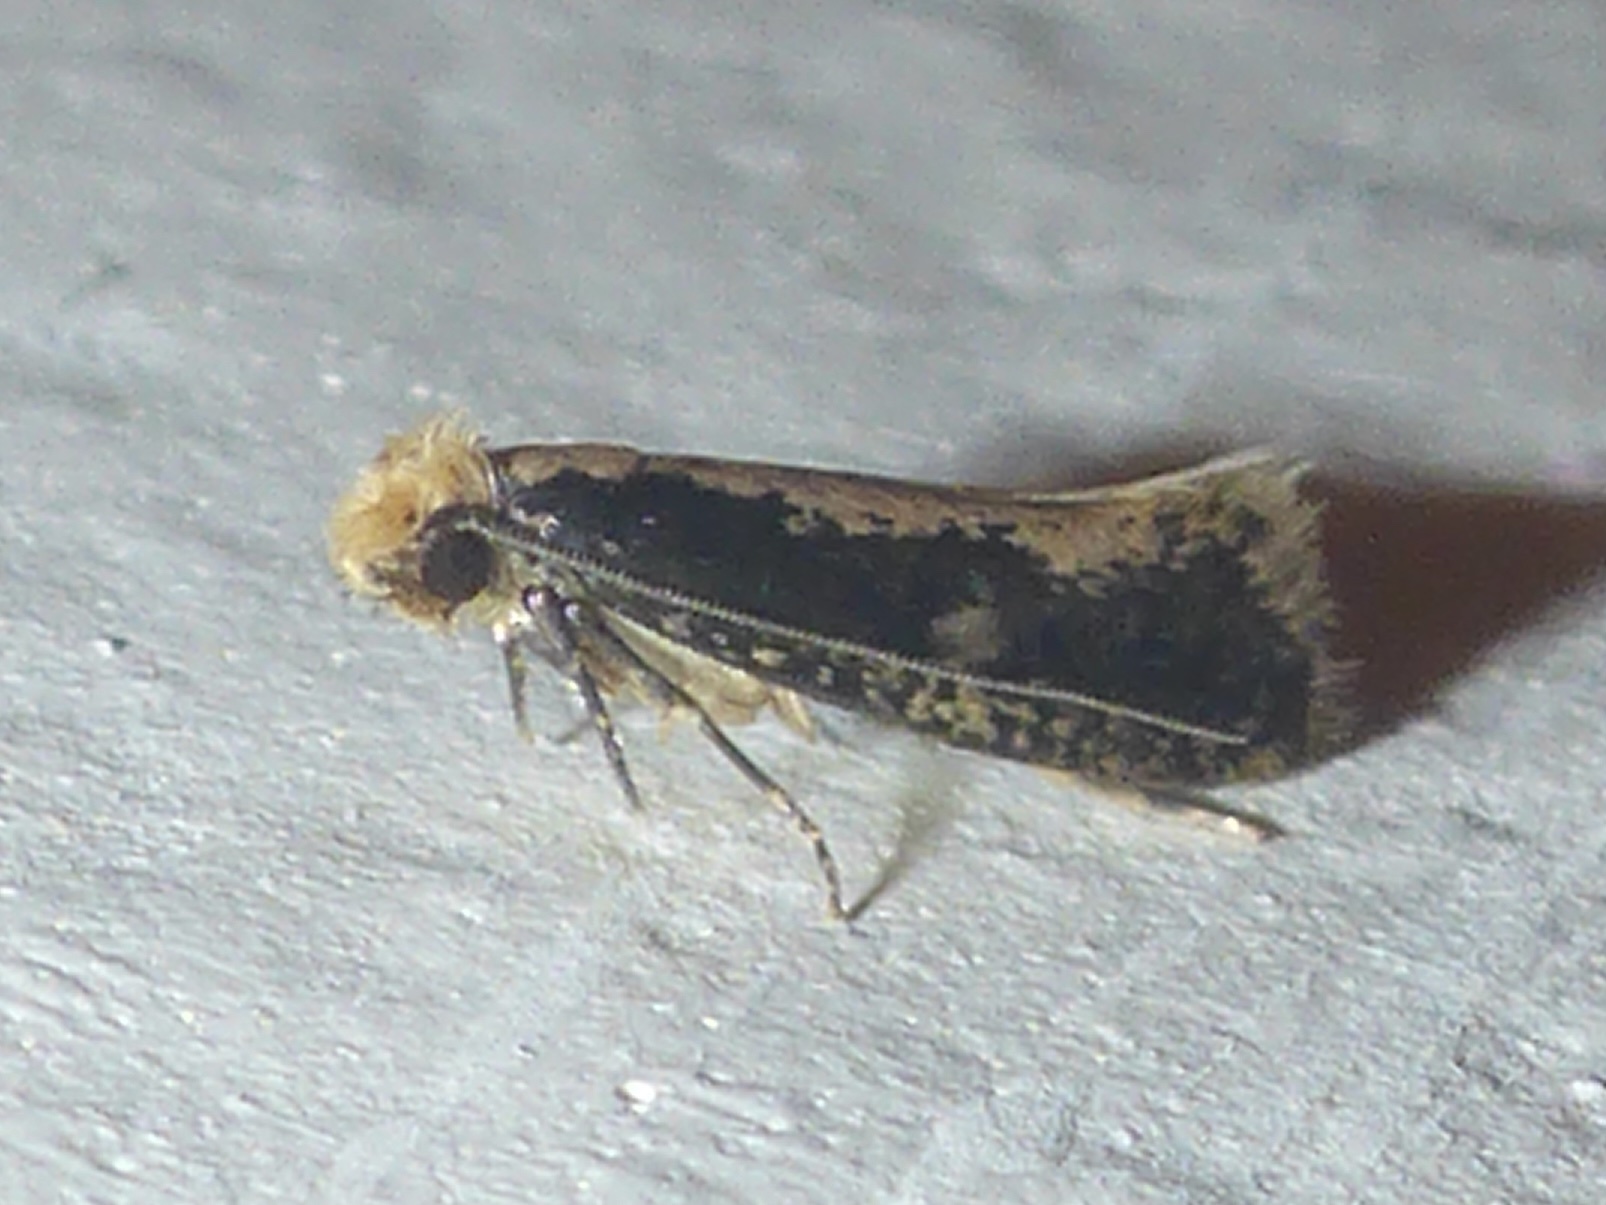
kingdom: Animalia
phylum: Arthropoda
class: Insecta
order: Lepidoptera
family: Tineidae
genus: Monopis
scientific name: Monopis crocicapitella
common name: Moth
